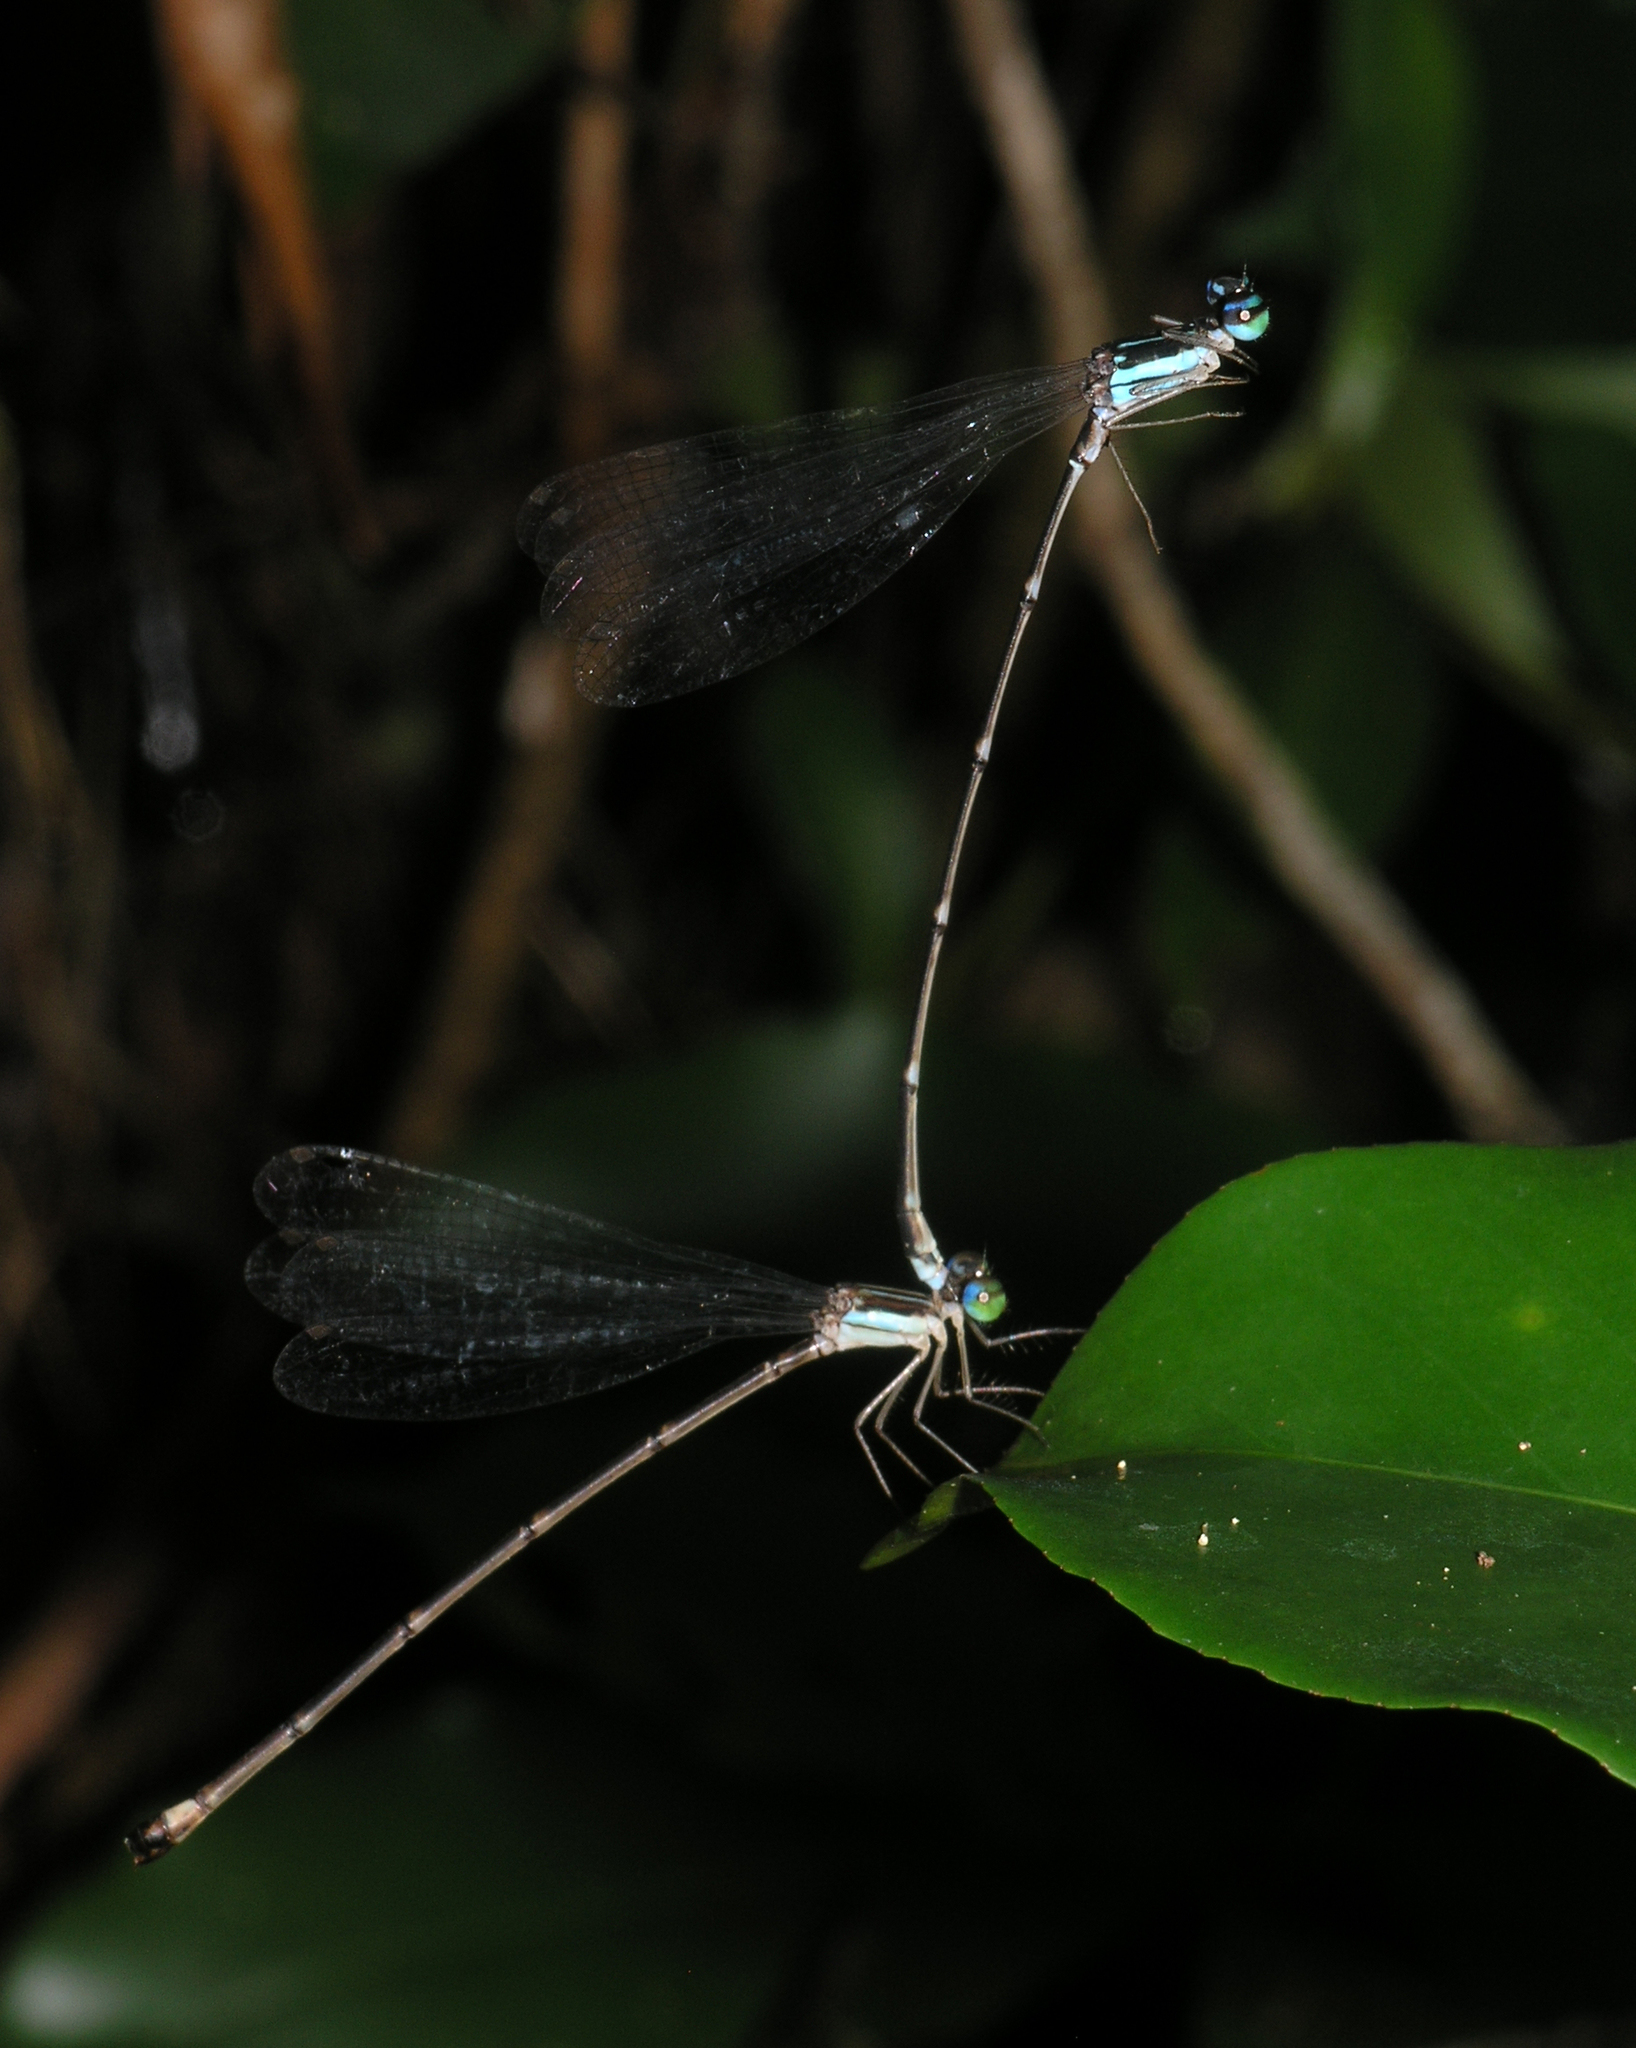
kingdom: Animalia
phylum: Arthropoda
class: Insecta
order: Odonata
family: Platycnemididae
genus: Coeliccia
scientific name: Coeliccia kazukoae
